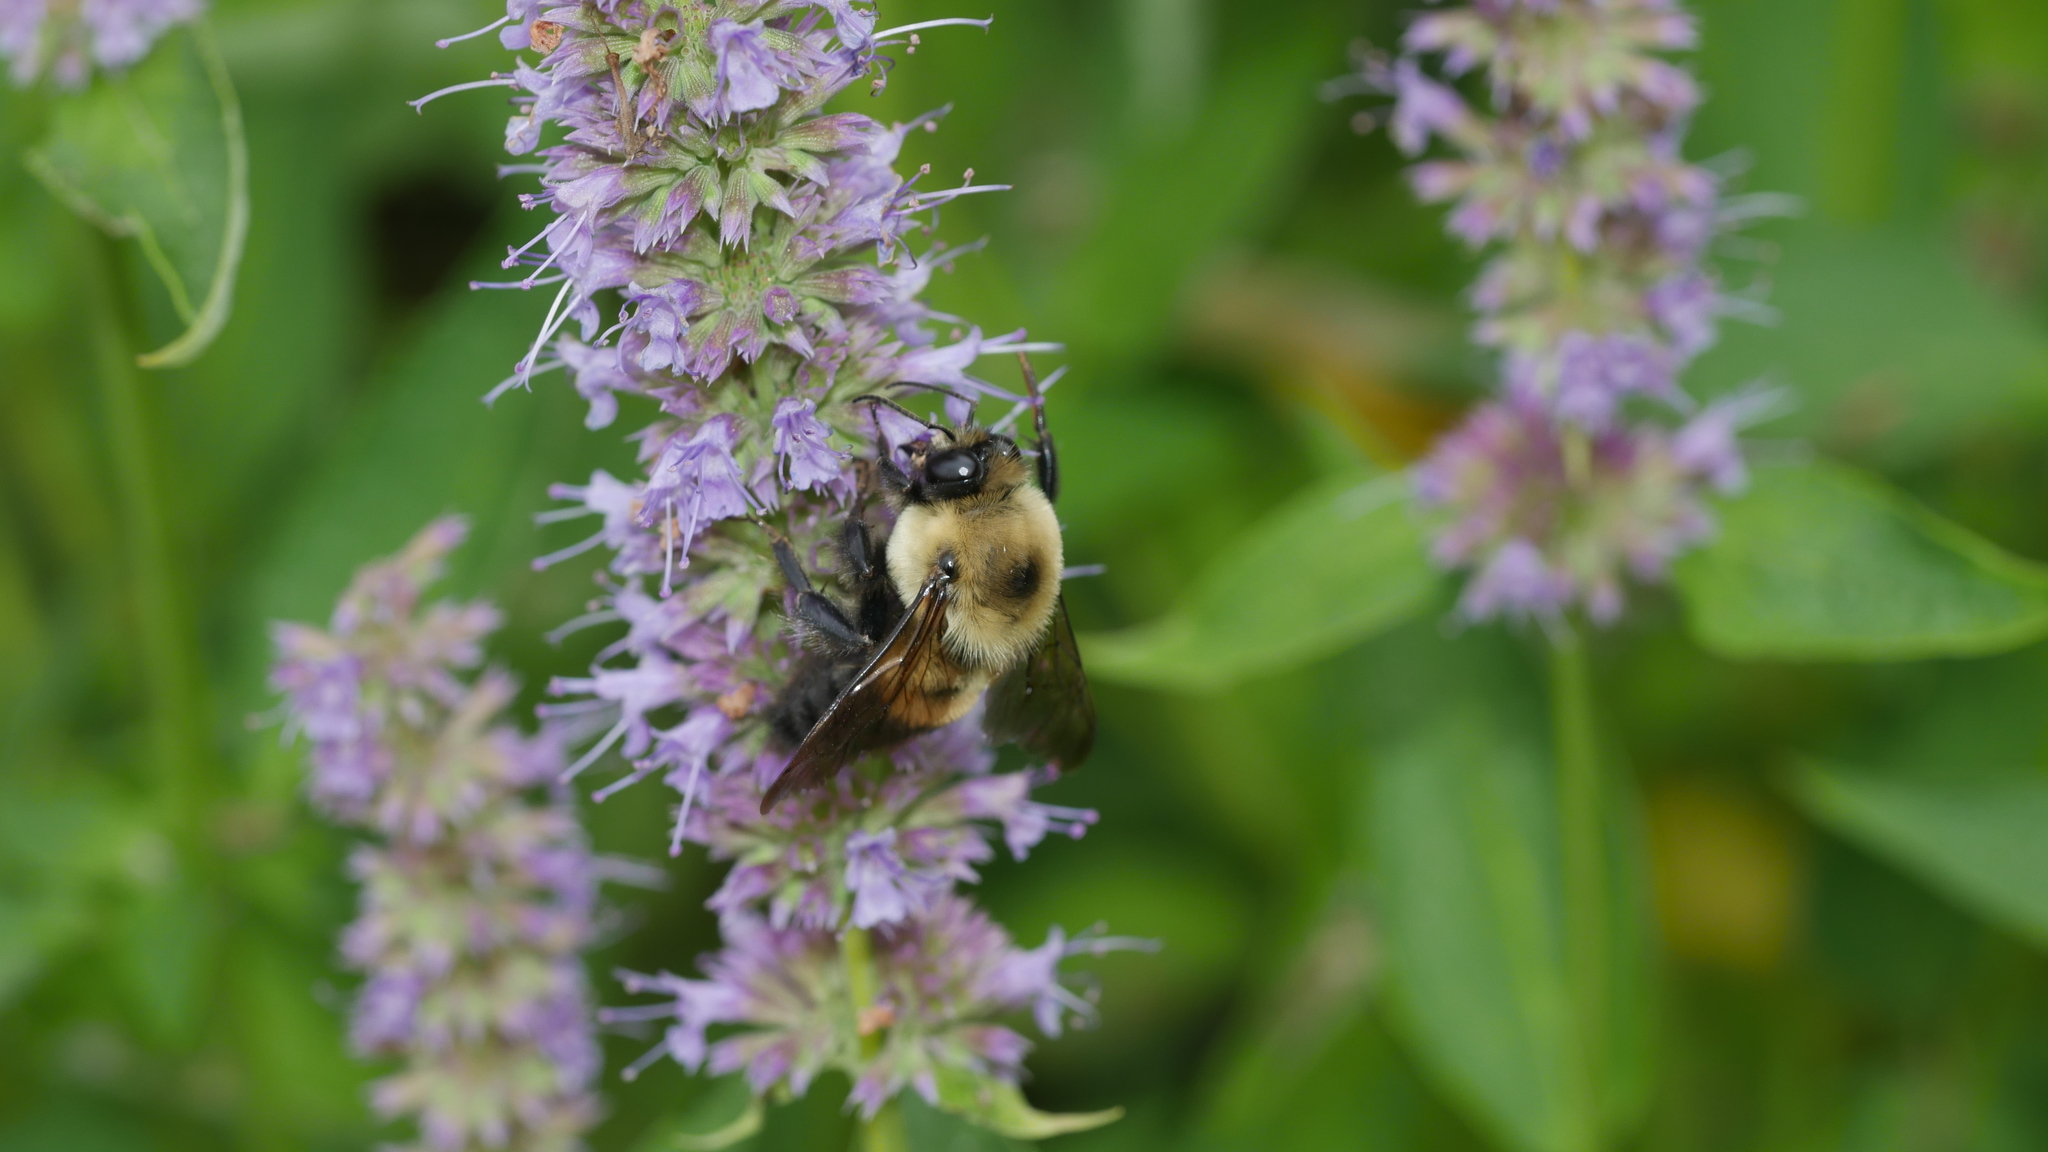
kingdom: Animalia
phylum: Arthropoda
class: Insecta
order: Hymenoptera
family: Apidae
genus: Bombus
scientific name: Bombus griseocollis
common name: Brown-belted bumble bee
